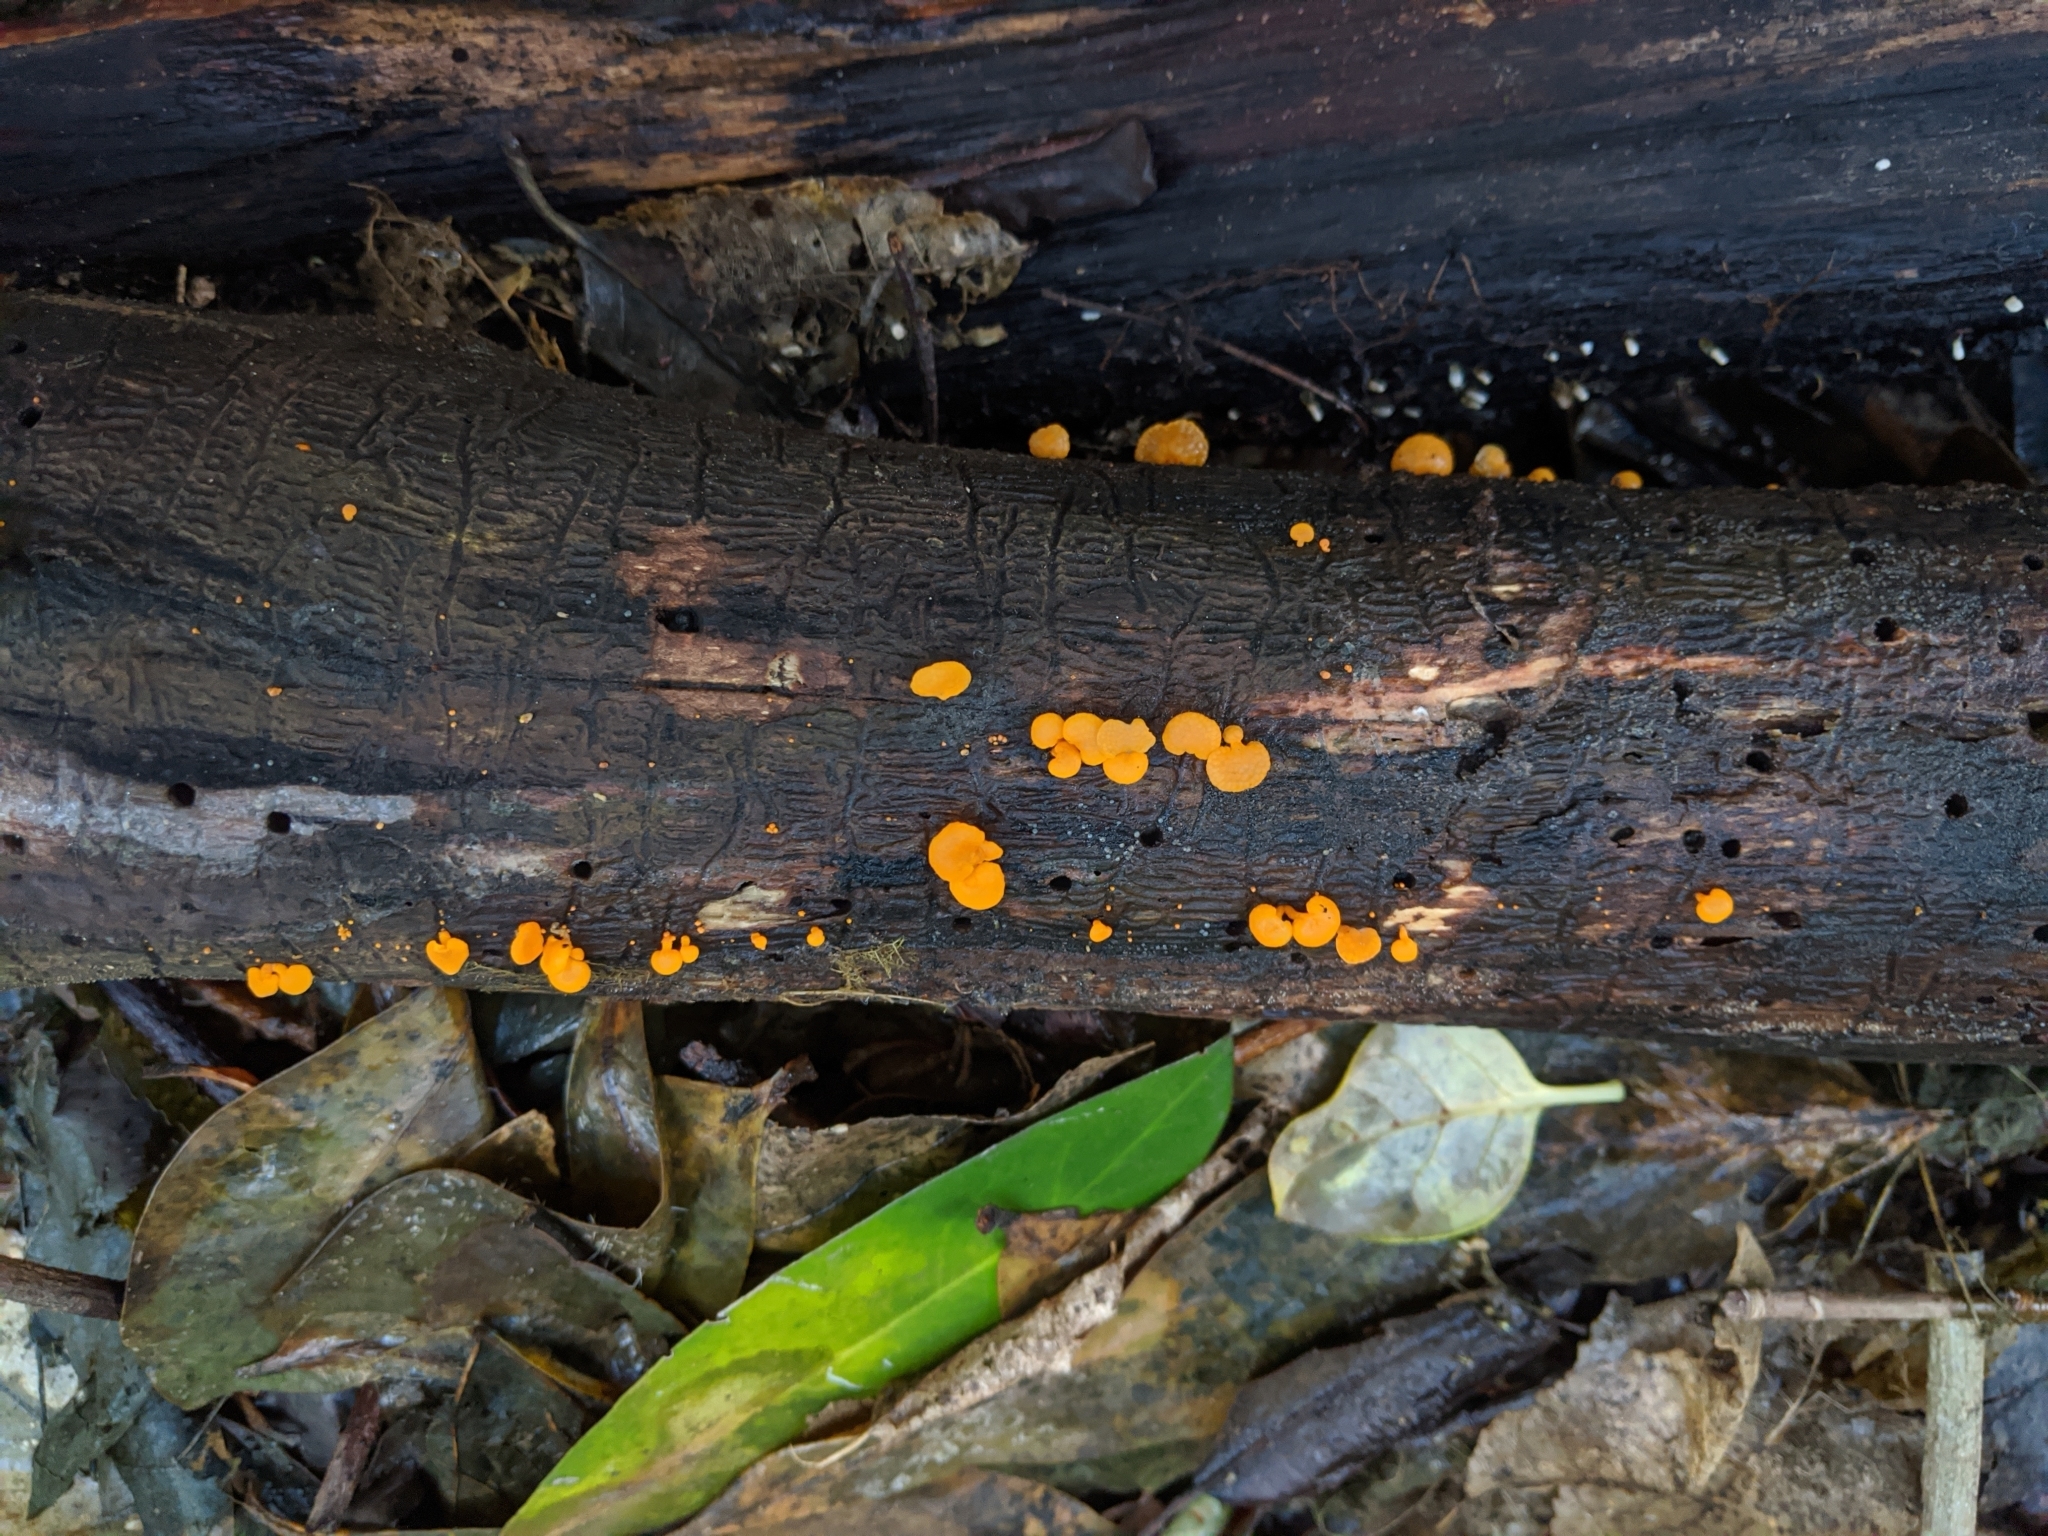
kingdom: Fungi
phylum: Basidiomycota
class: Agaricomycetes
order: Agaricales
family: Mycenaceae
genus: Favolaschia
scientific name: Favolaschia claudopus
